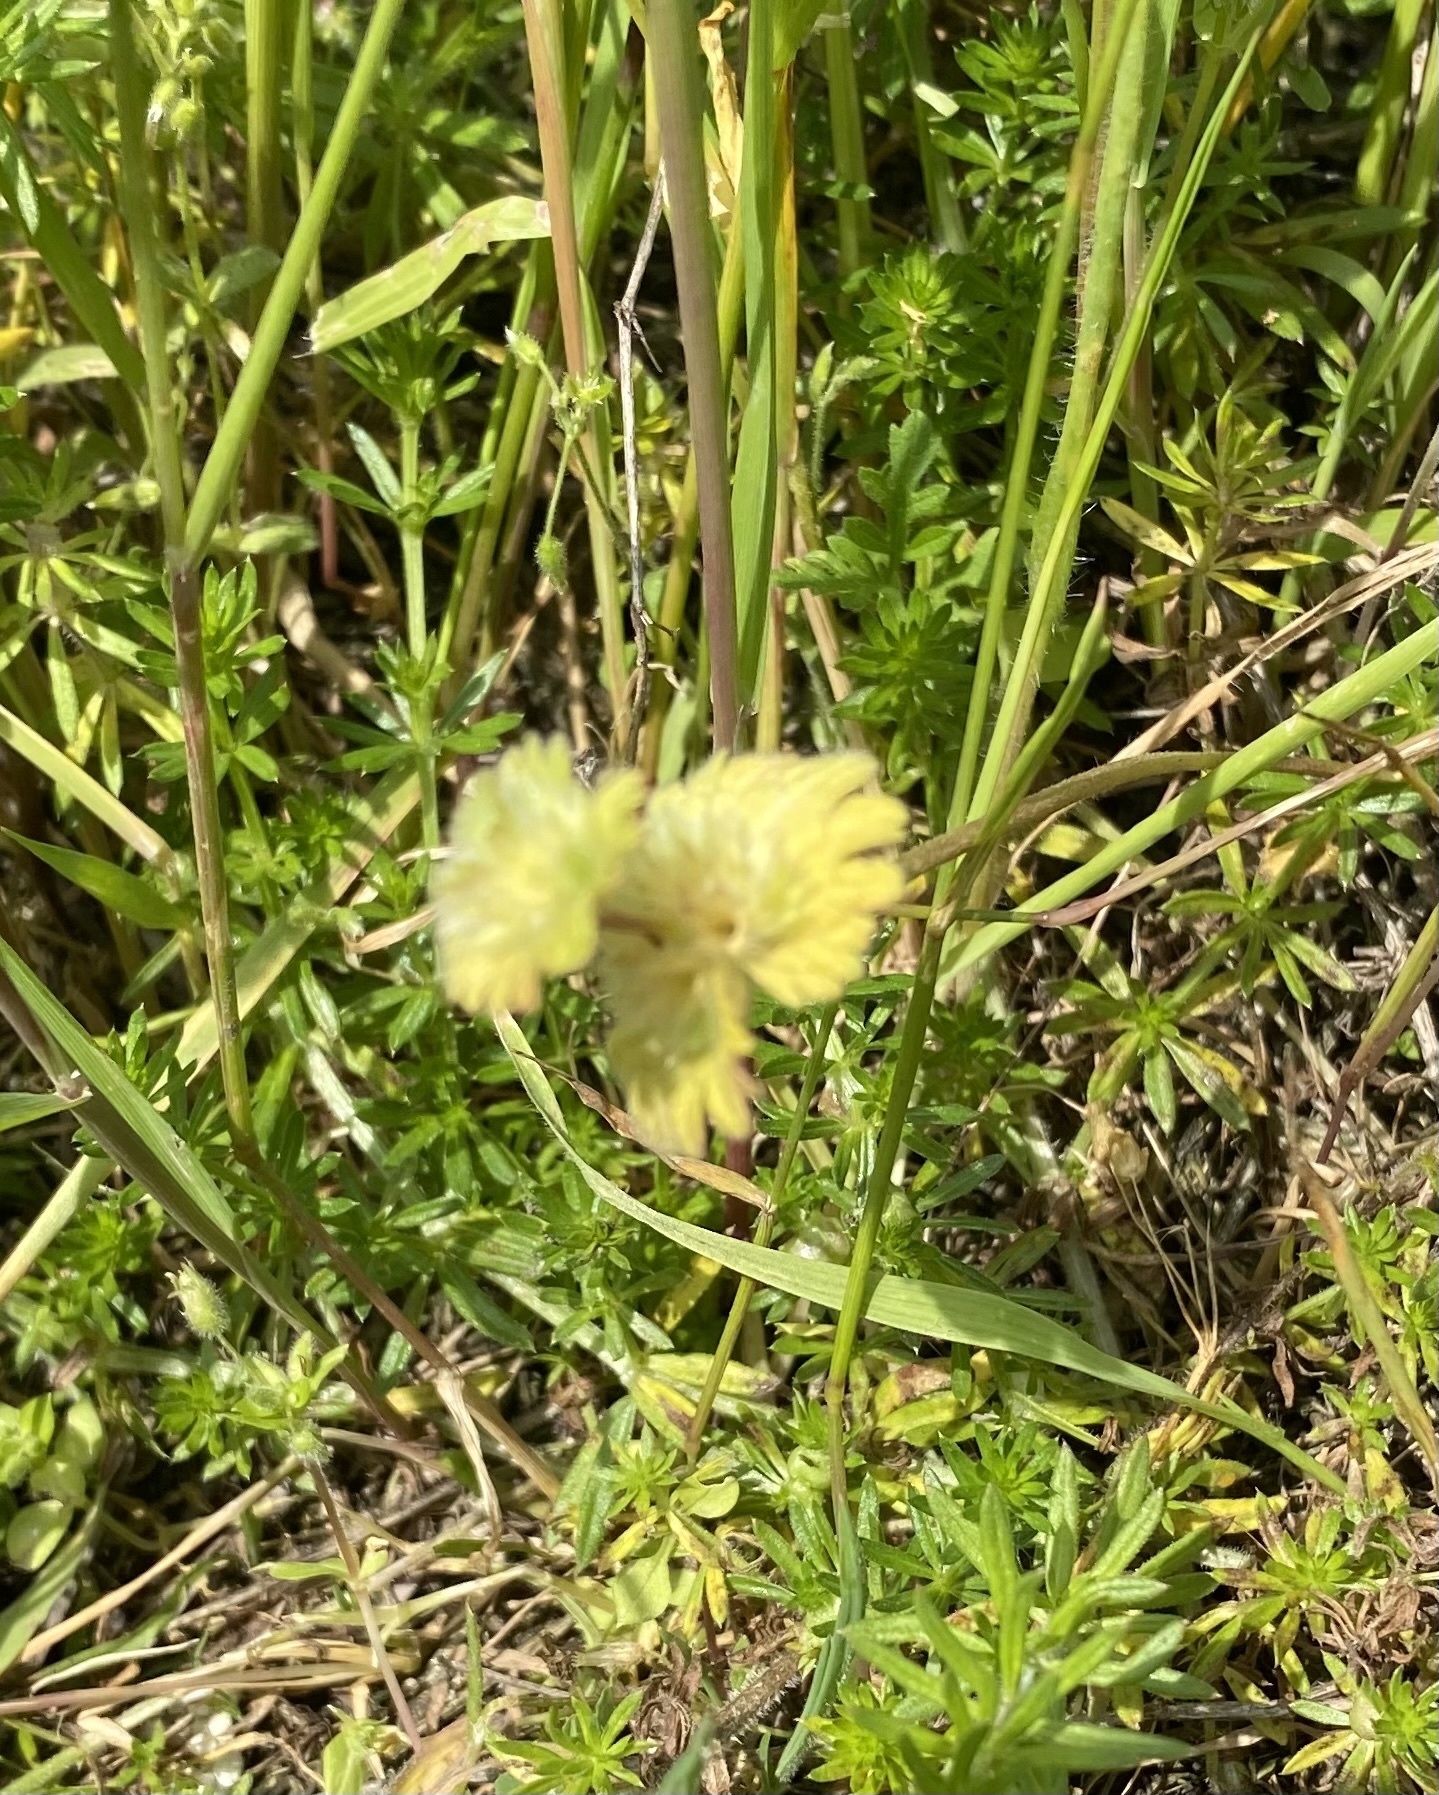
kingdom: Plantae
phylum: Tracheophyta
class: Magnoliopsida
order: Lamiales
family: Lamiaceae
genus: Lamium
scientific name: Lamium amplexicaule
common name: Henbit dead-nettle
